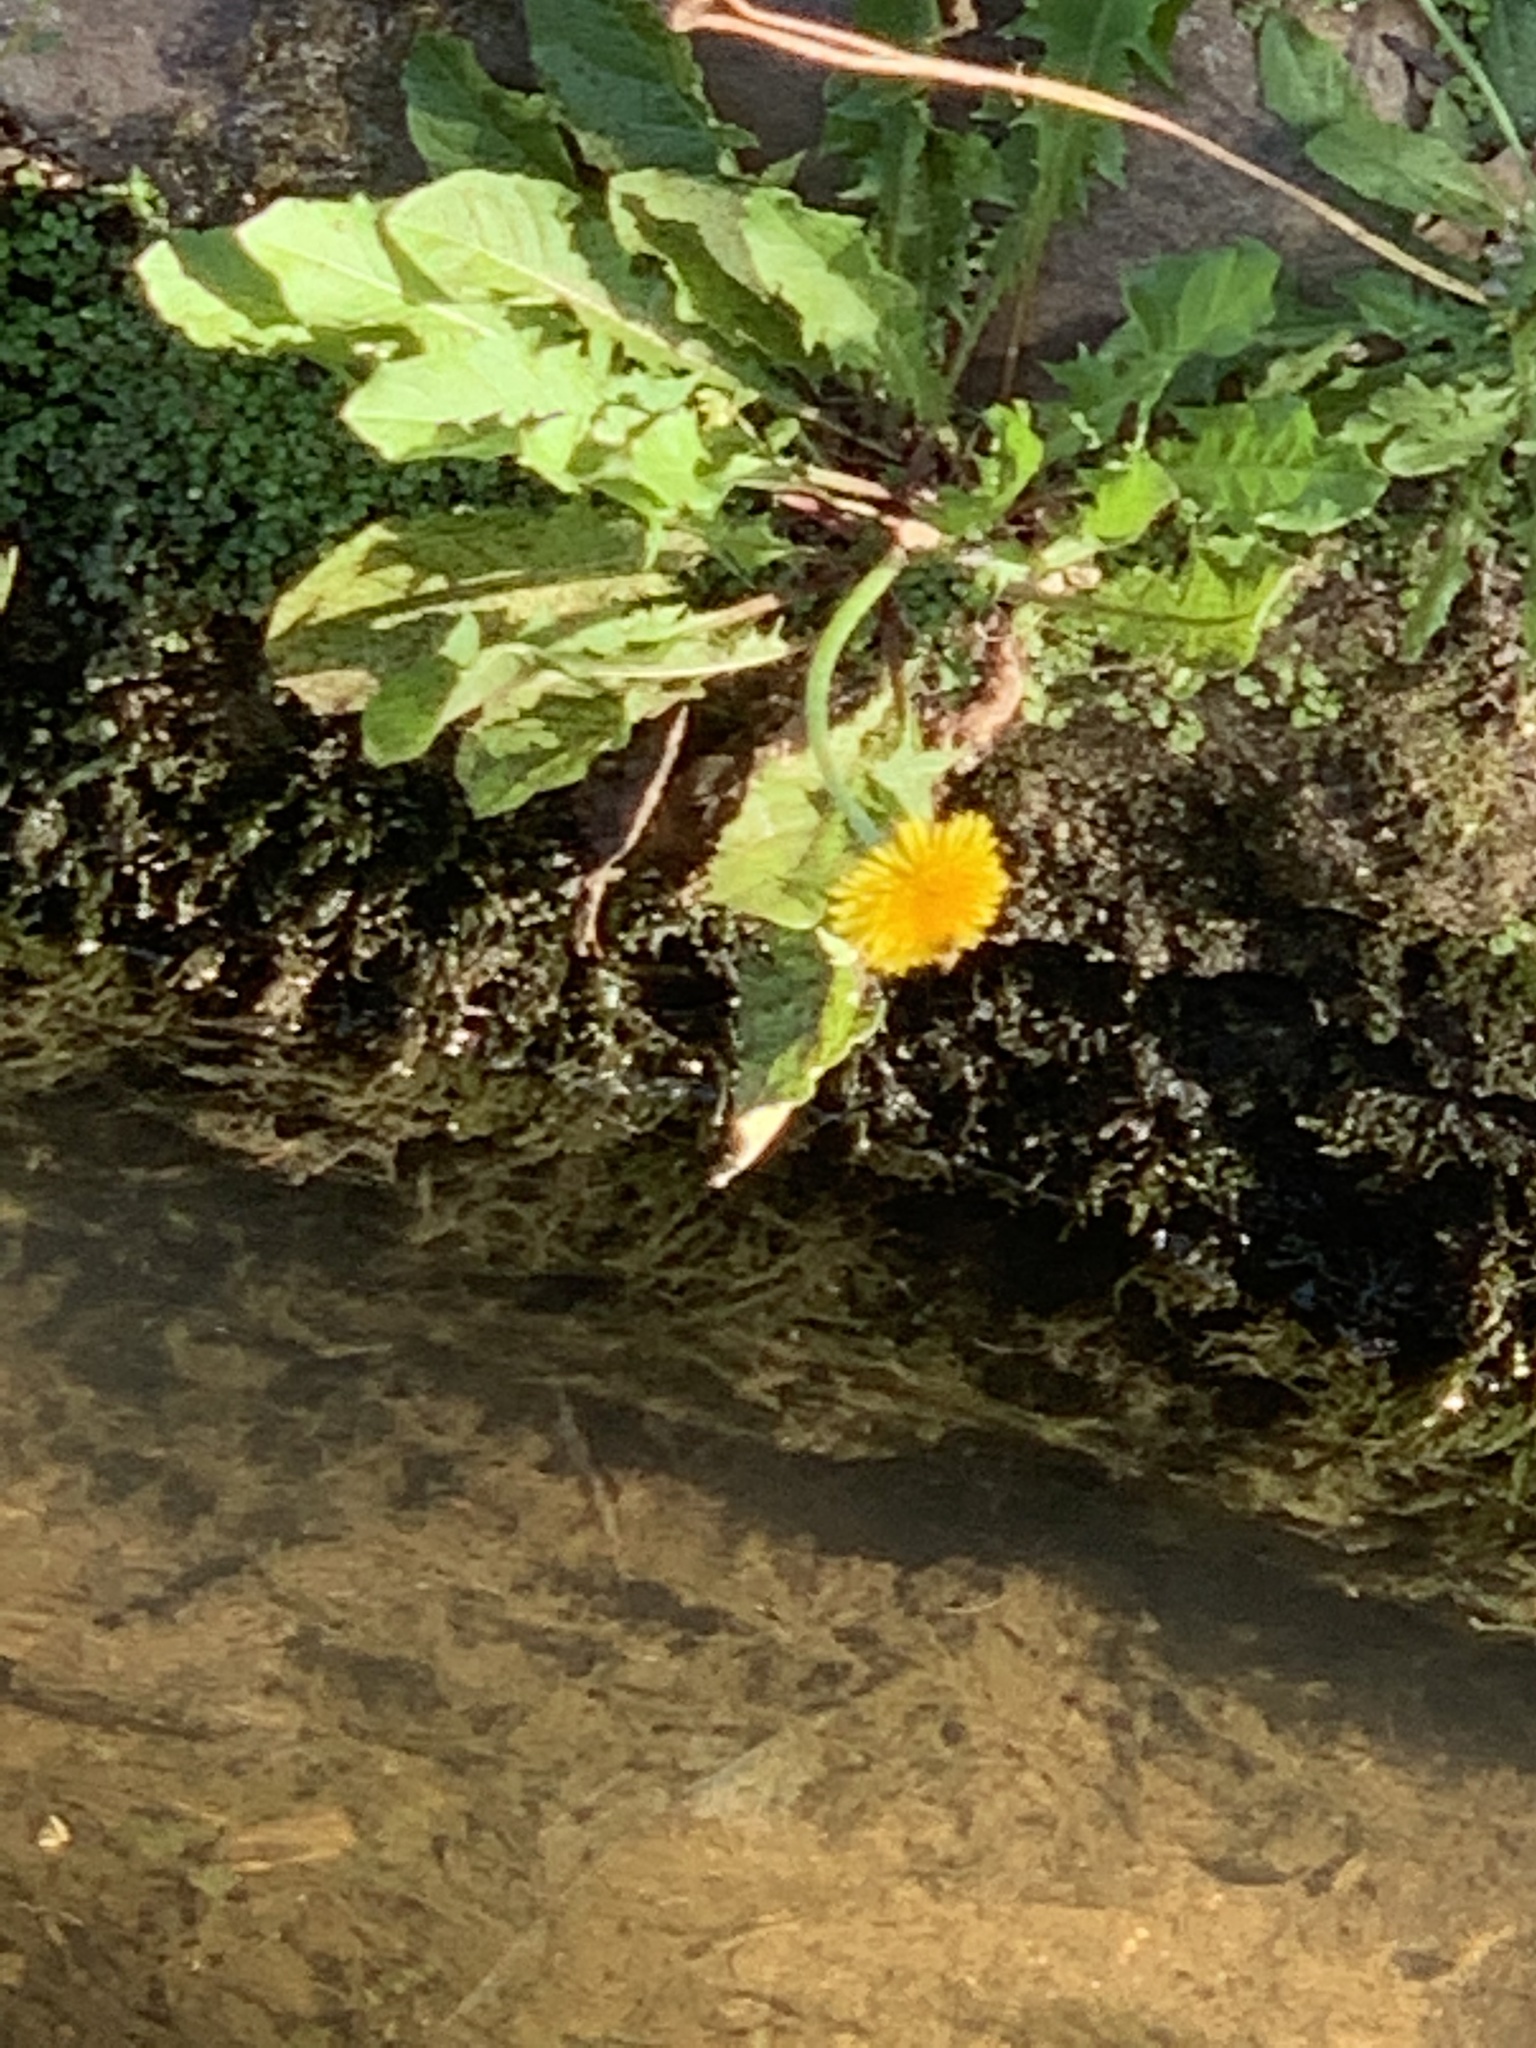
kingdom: Plantae
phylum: Tracheophyta
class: Magnoliopsida
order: Asterales
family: Asteraceae
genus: Taraxacum
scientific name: Taraxacum officinale
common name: Common dandelion
